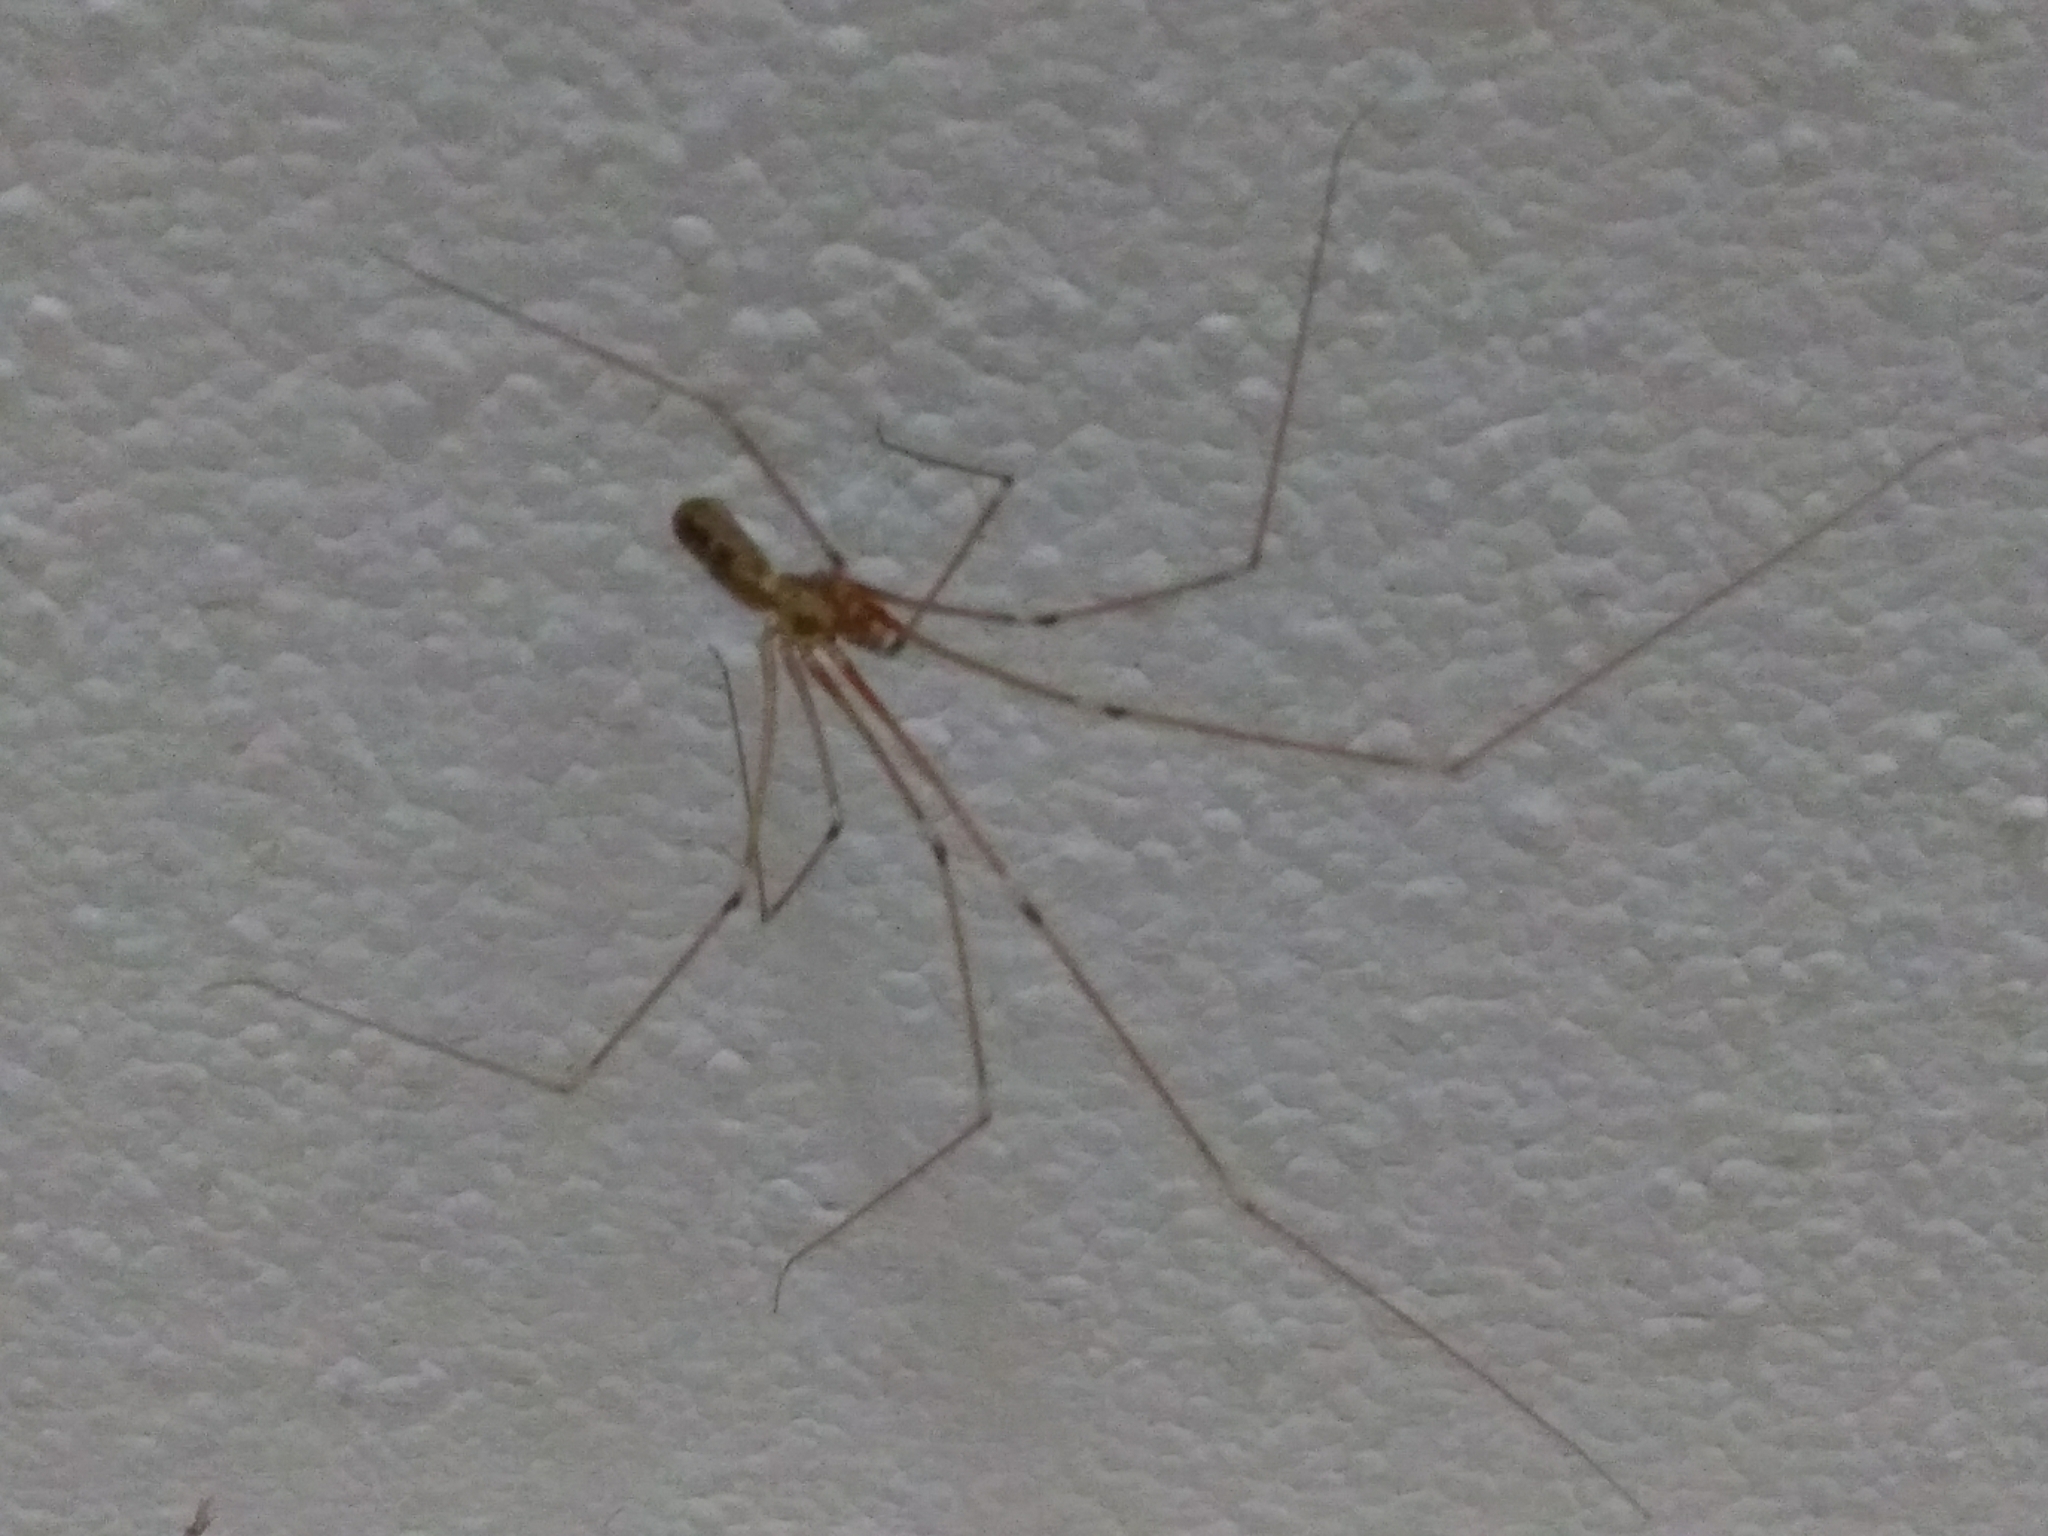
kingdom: Animalia
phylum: Arthropoda
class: Arachnida
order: Araneae
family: Pholcidae
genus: Pholcus
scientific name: Pholcus phalangioides
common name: Longbodied cellar spider
